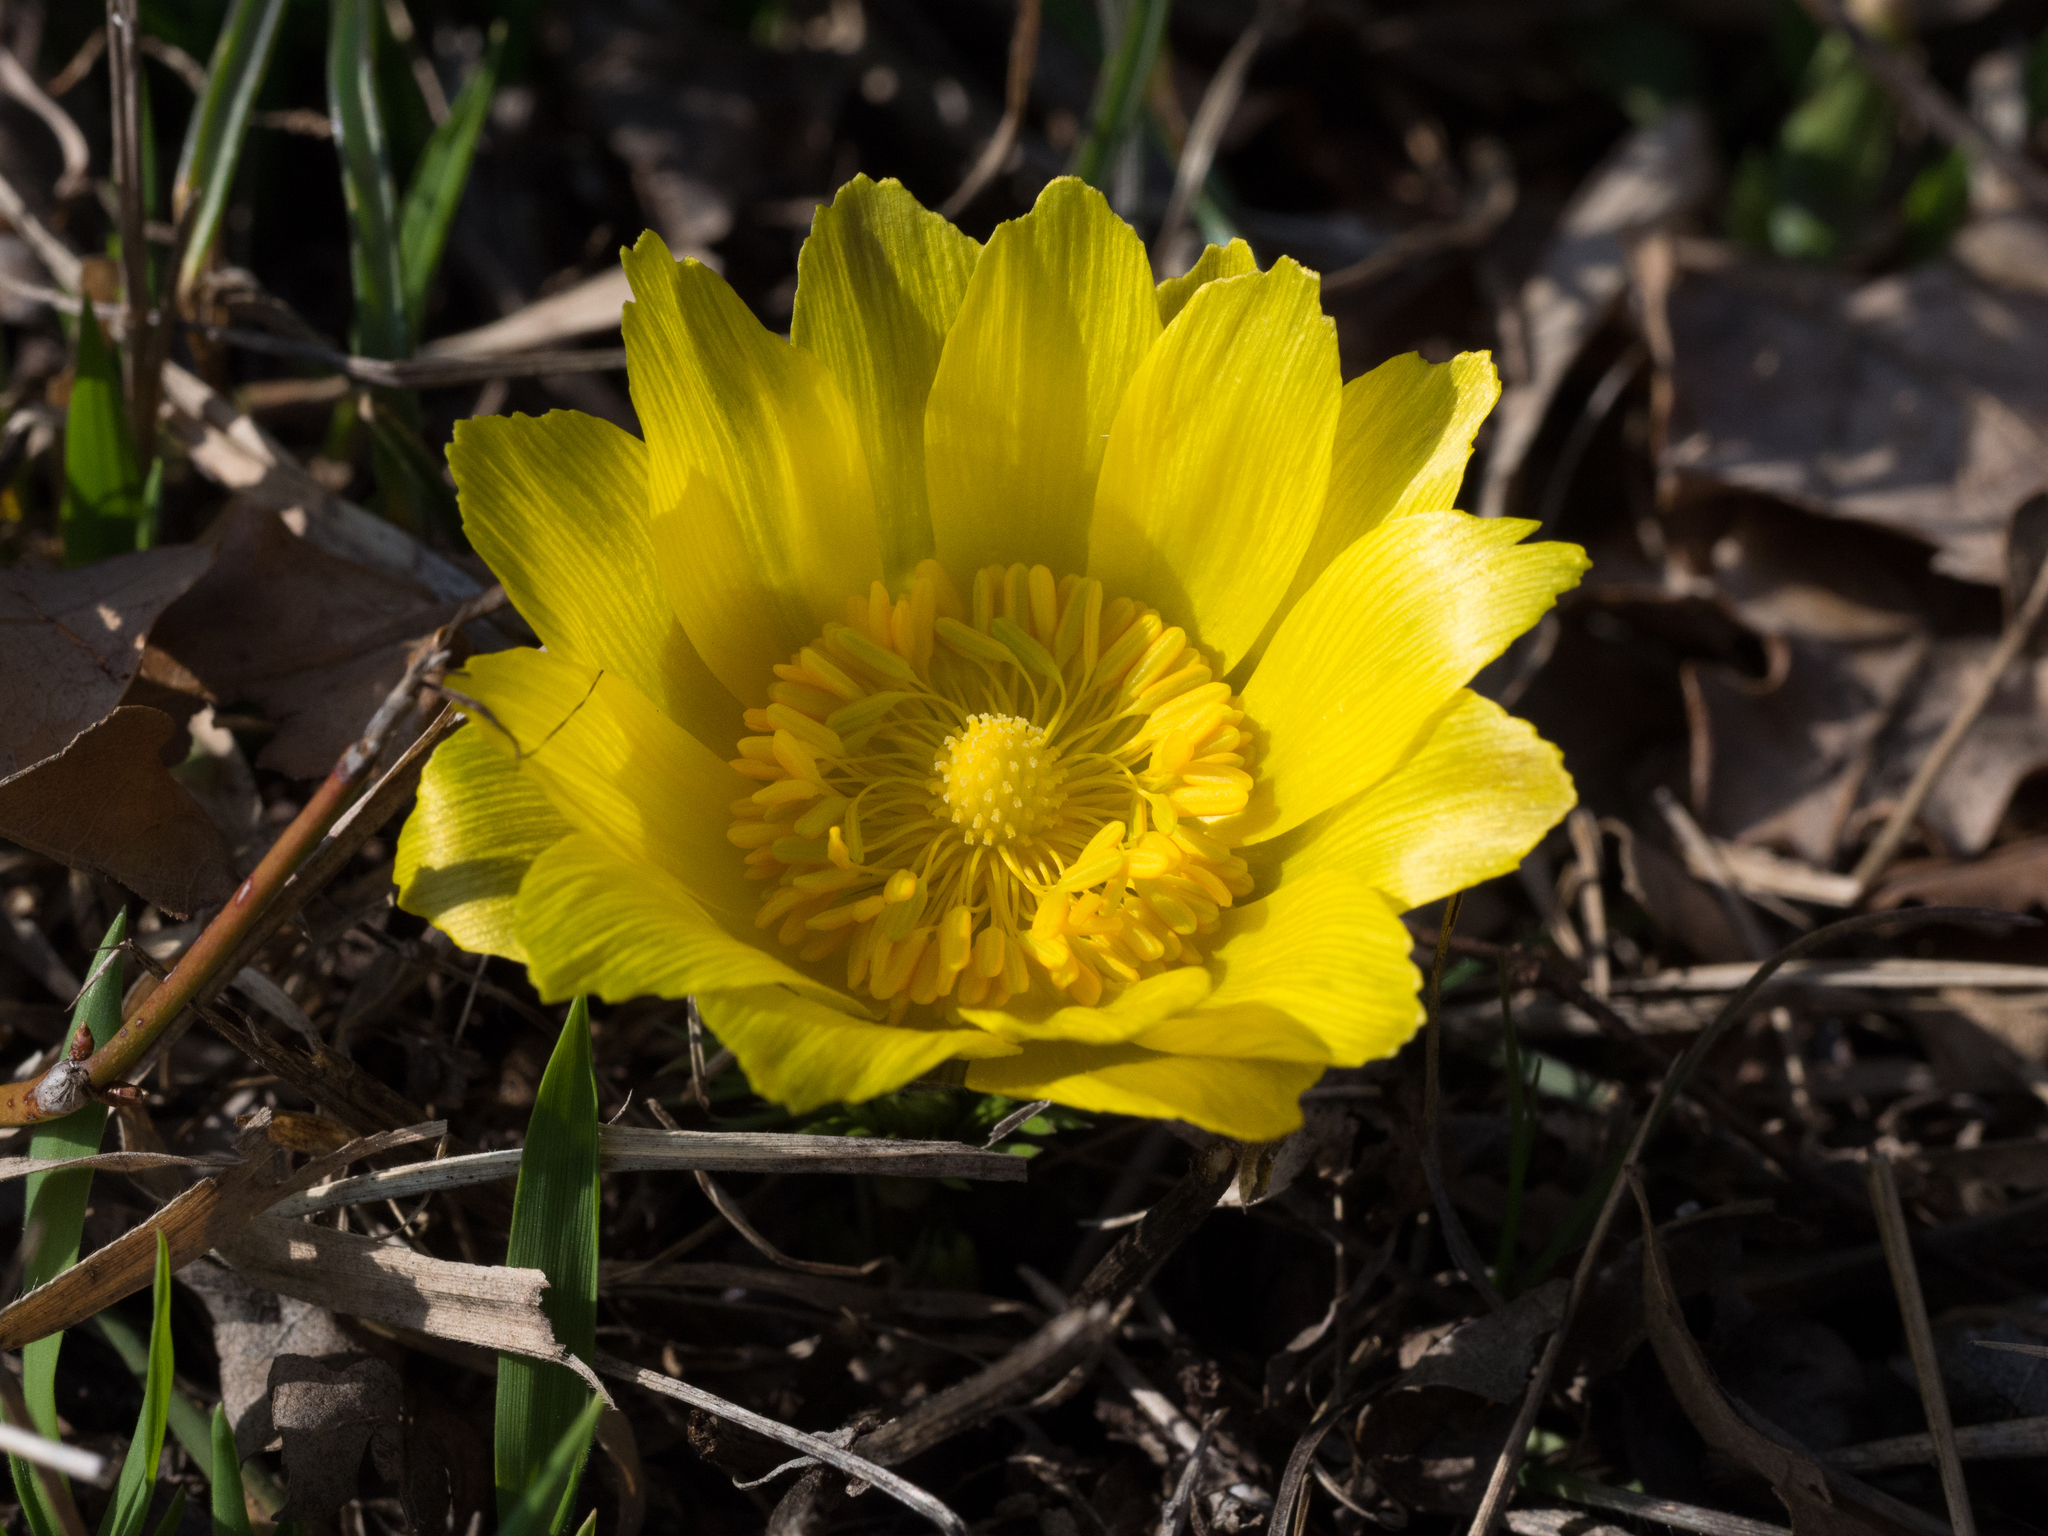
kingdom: Plantae
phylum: Tracheophyta
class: Magnoliopsida
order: Ranunculales
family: Ranunculaceae
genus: Adonis
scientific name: Adonis vernalis
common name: Yellow pheasants-eye
